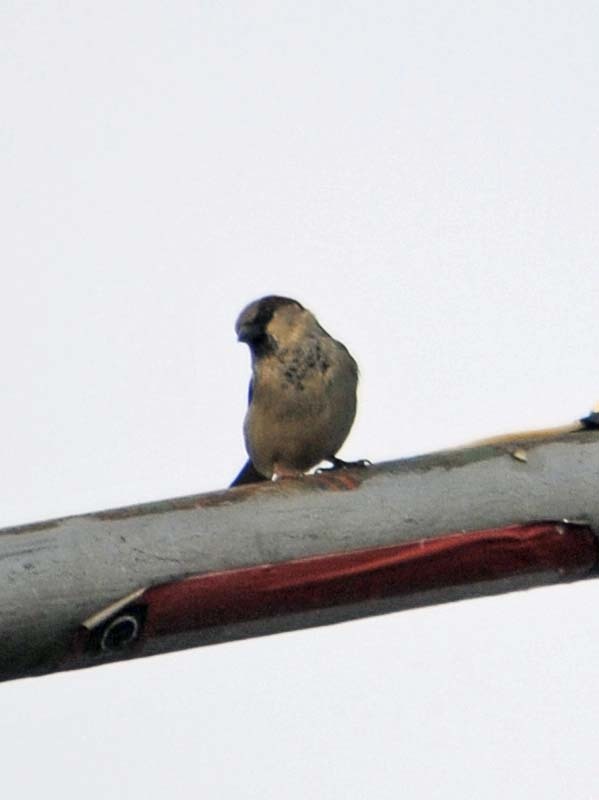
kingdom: Animalia
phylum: Chordata
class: Aves
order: Passeriformes
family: Passeridae
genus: Passer
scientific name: Passer domesticus
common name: House sparrow
